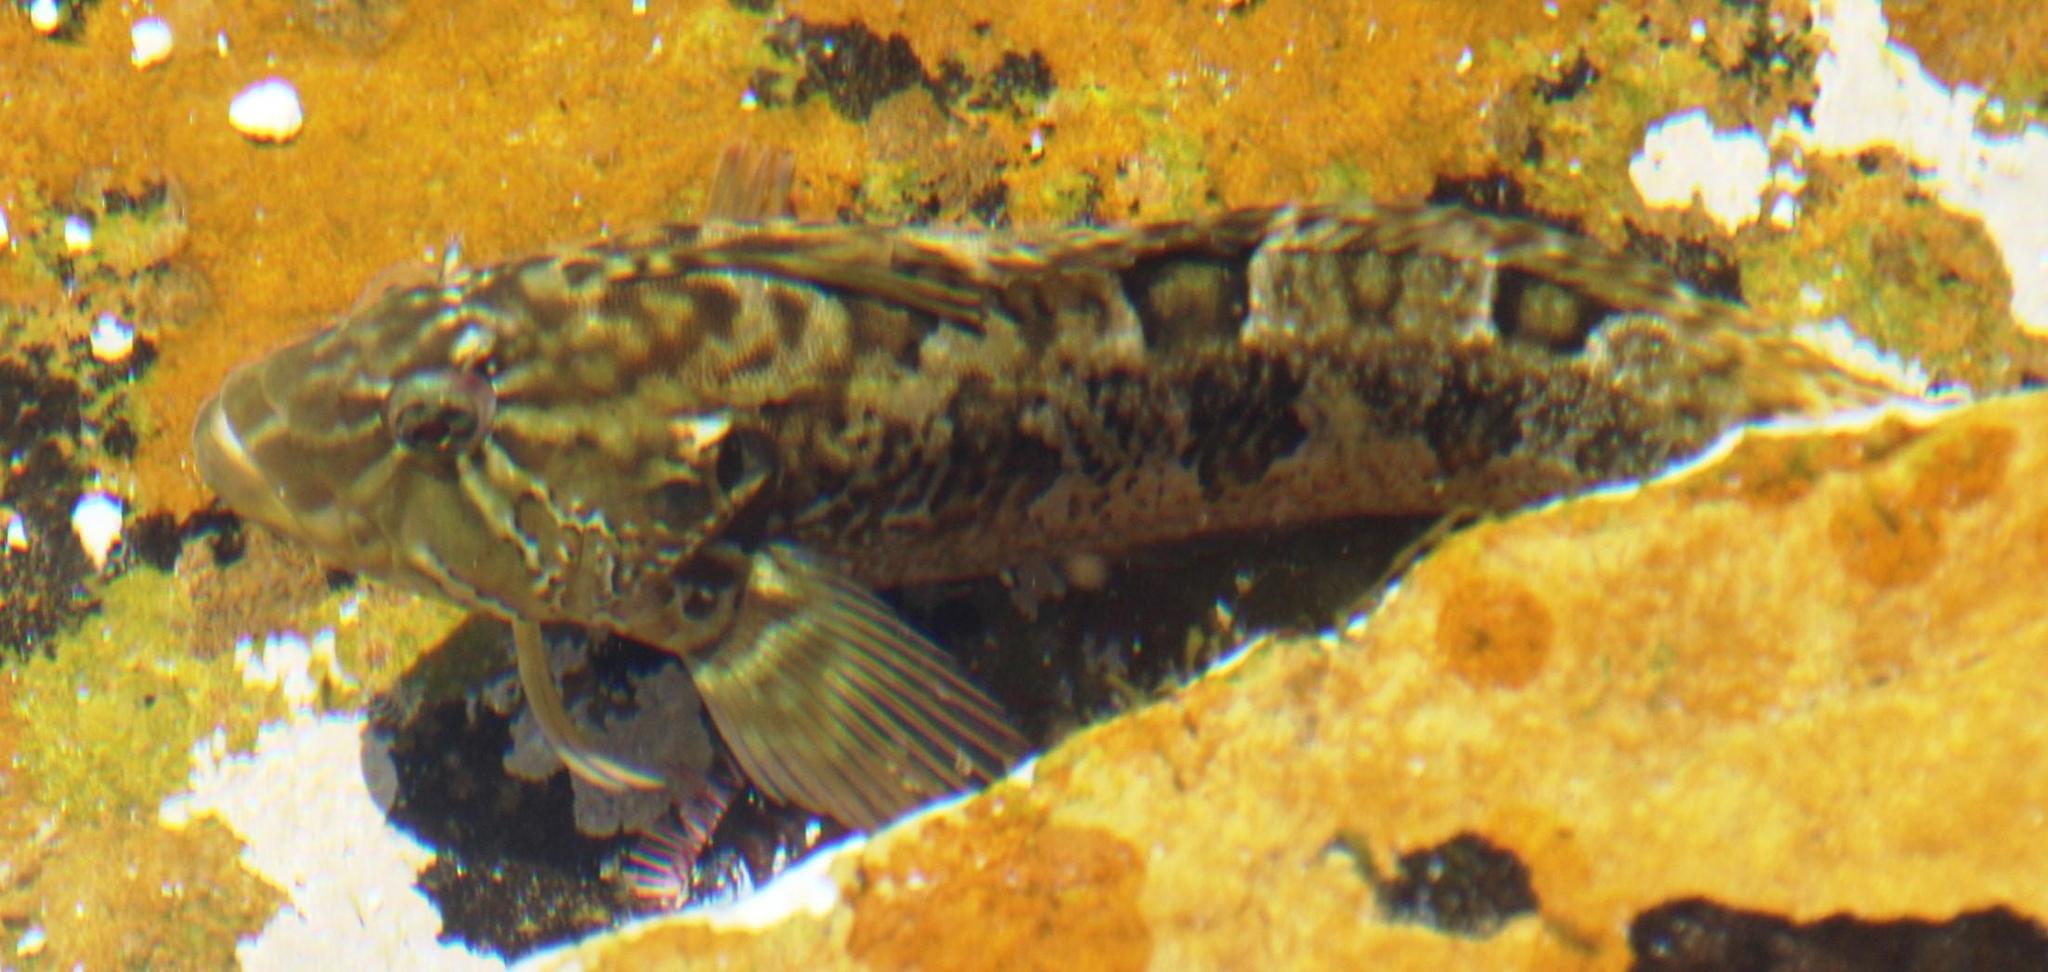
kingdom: Animalia
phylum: Chordata
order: Perciformes
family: Clinidae
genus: Clinus
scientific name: Clinus superciliosus
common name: Super klipfish
